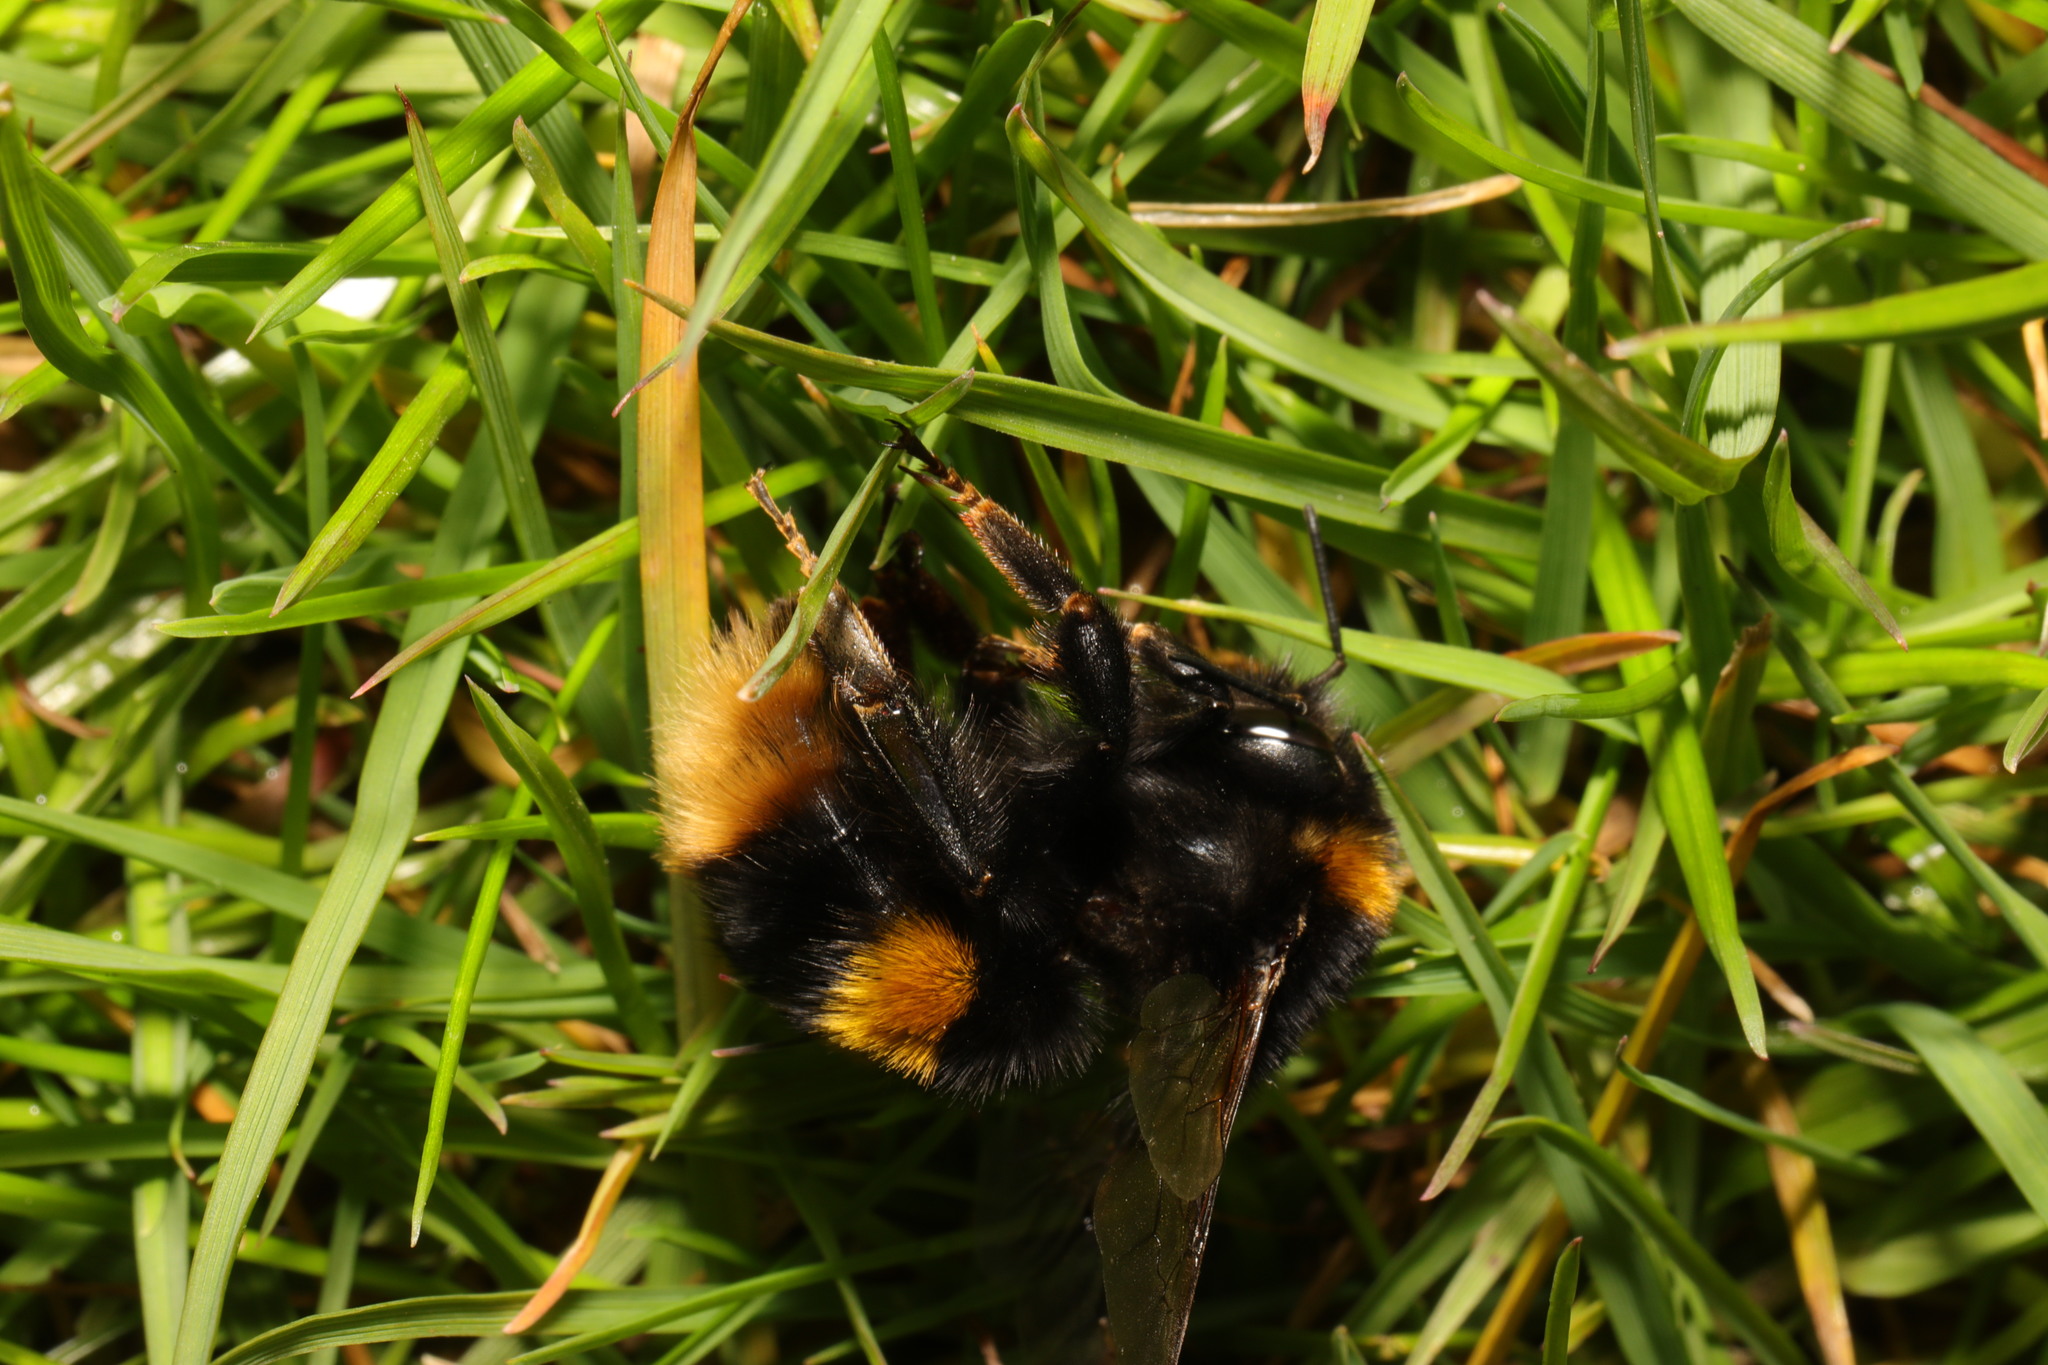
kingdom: Animalia
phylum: Arthropoda
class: Insecta
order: Hymenoptera
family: Apidae
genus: Bombus
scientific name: Bombus terrestris
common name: Buff-tailed bumblebee
